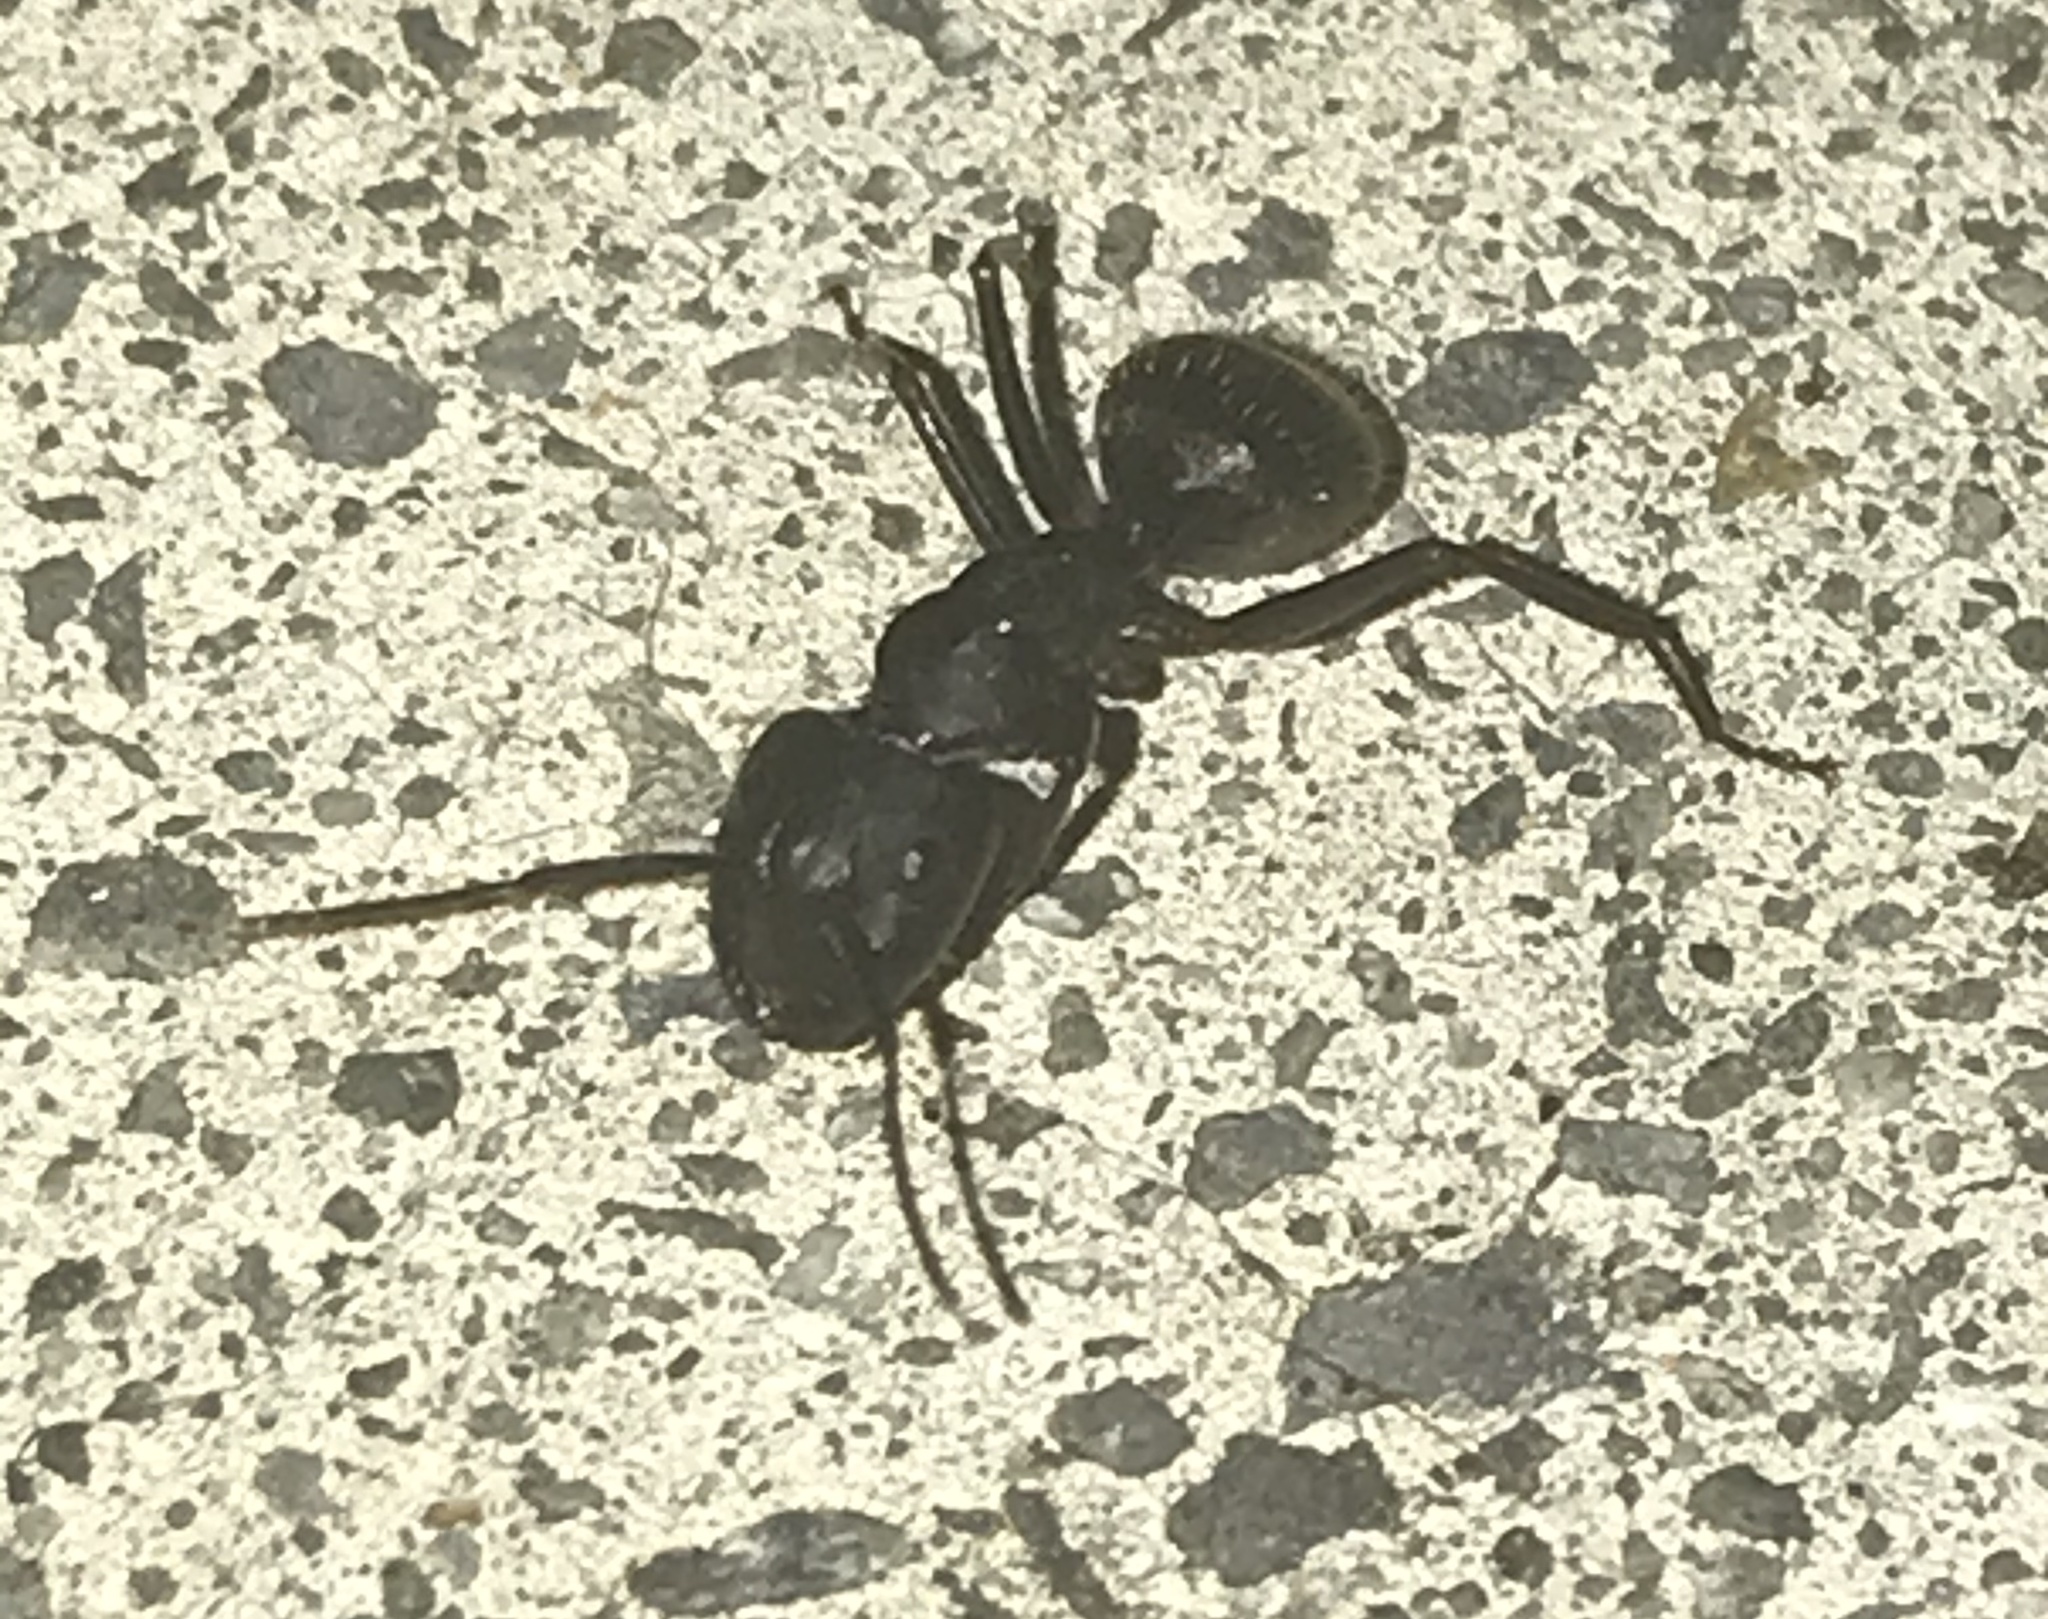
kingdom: Animalia
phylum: Arthropoda
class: Insecta
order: Hymenoptera
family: Formicidae
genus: Camponotus
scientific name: Camponotus pennsylvanicus
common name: Black carpenter ant
